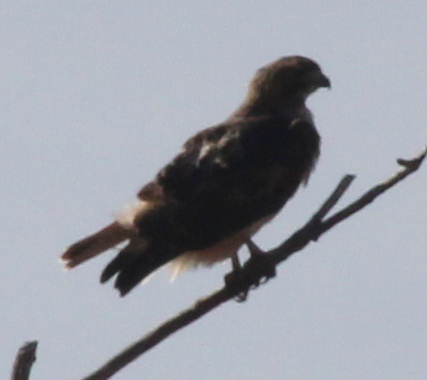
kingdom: Animalia
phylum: Chordata
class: Aves
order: Accipitriformes
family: Accipitridae
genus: Buteo
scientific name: Buteo jamaicensis
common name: Red-tailed hawk
